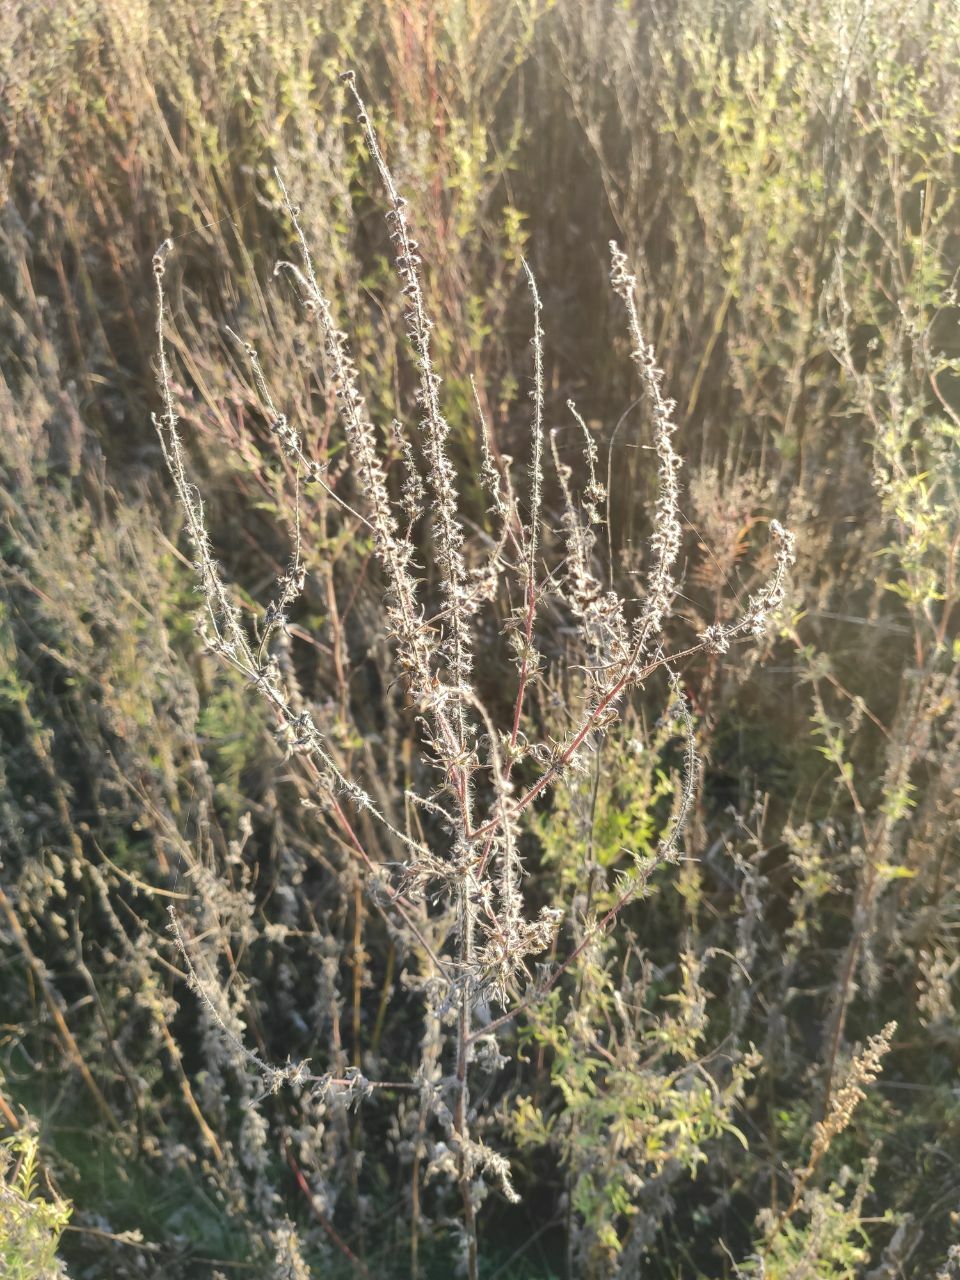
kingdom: Plantae
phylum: Tracheophyta
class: Magnoliopsida
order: Asterales
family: Asteraceae
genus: Ambrosia
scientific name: Ambrosia artemisiifolia
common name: Annual ragweed
